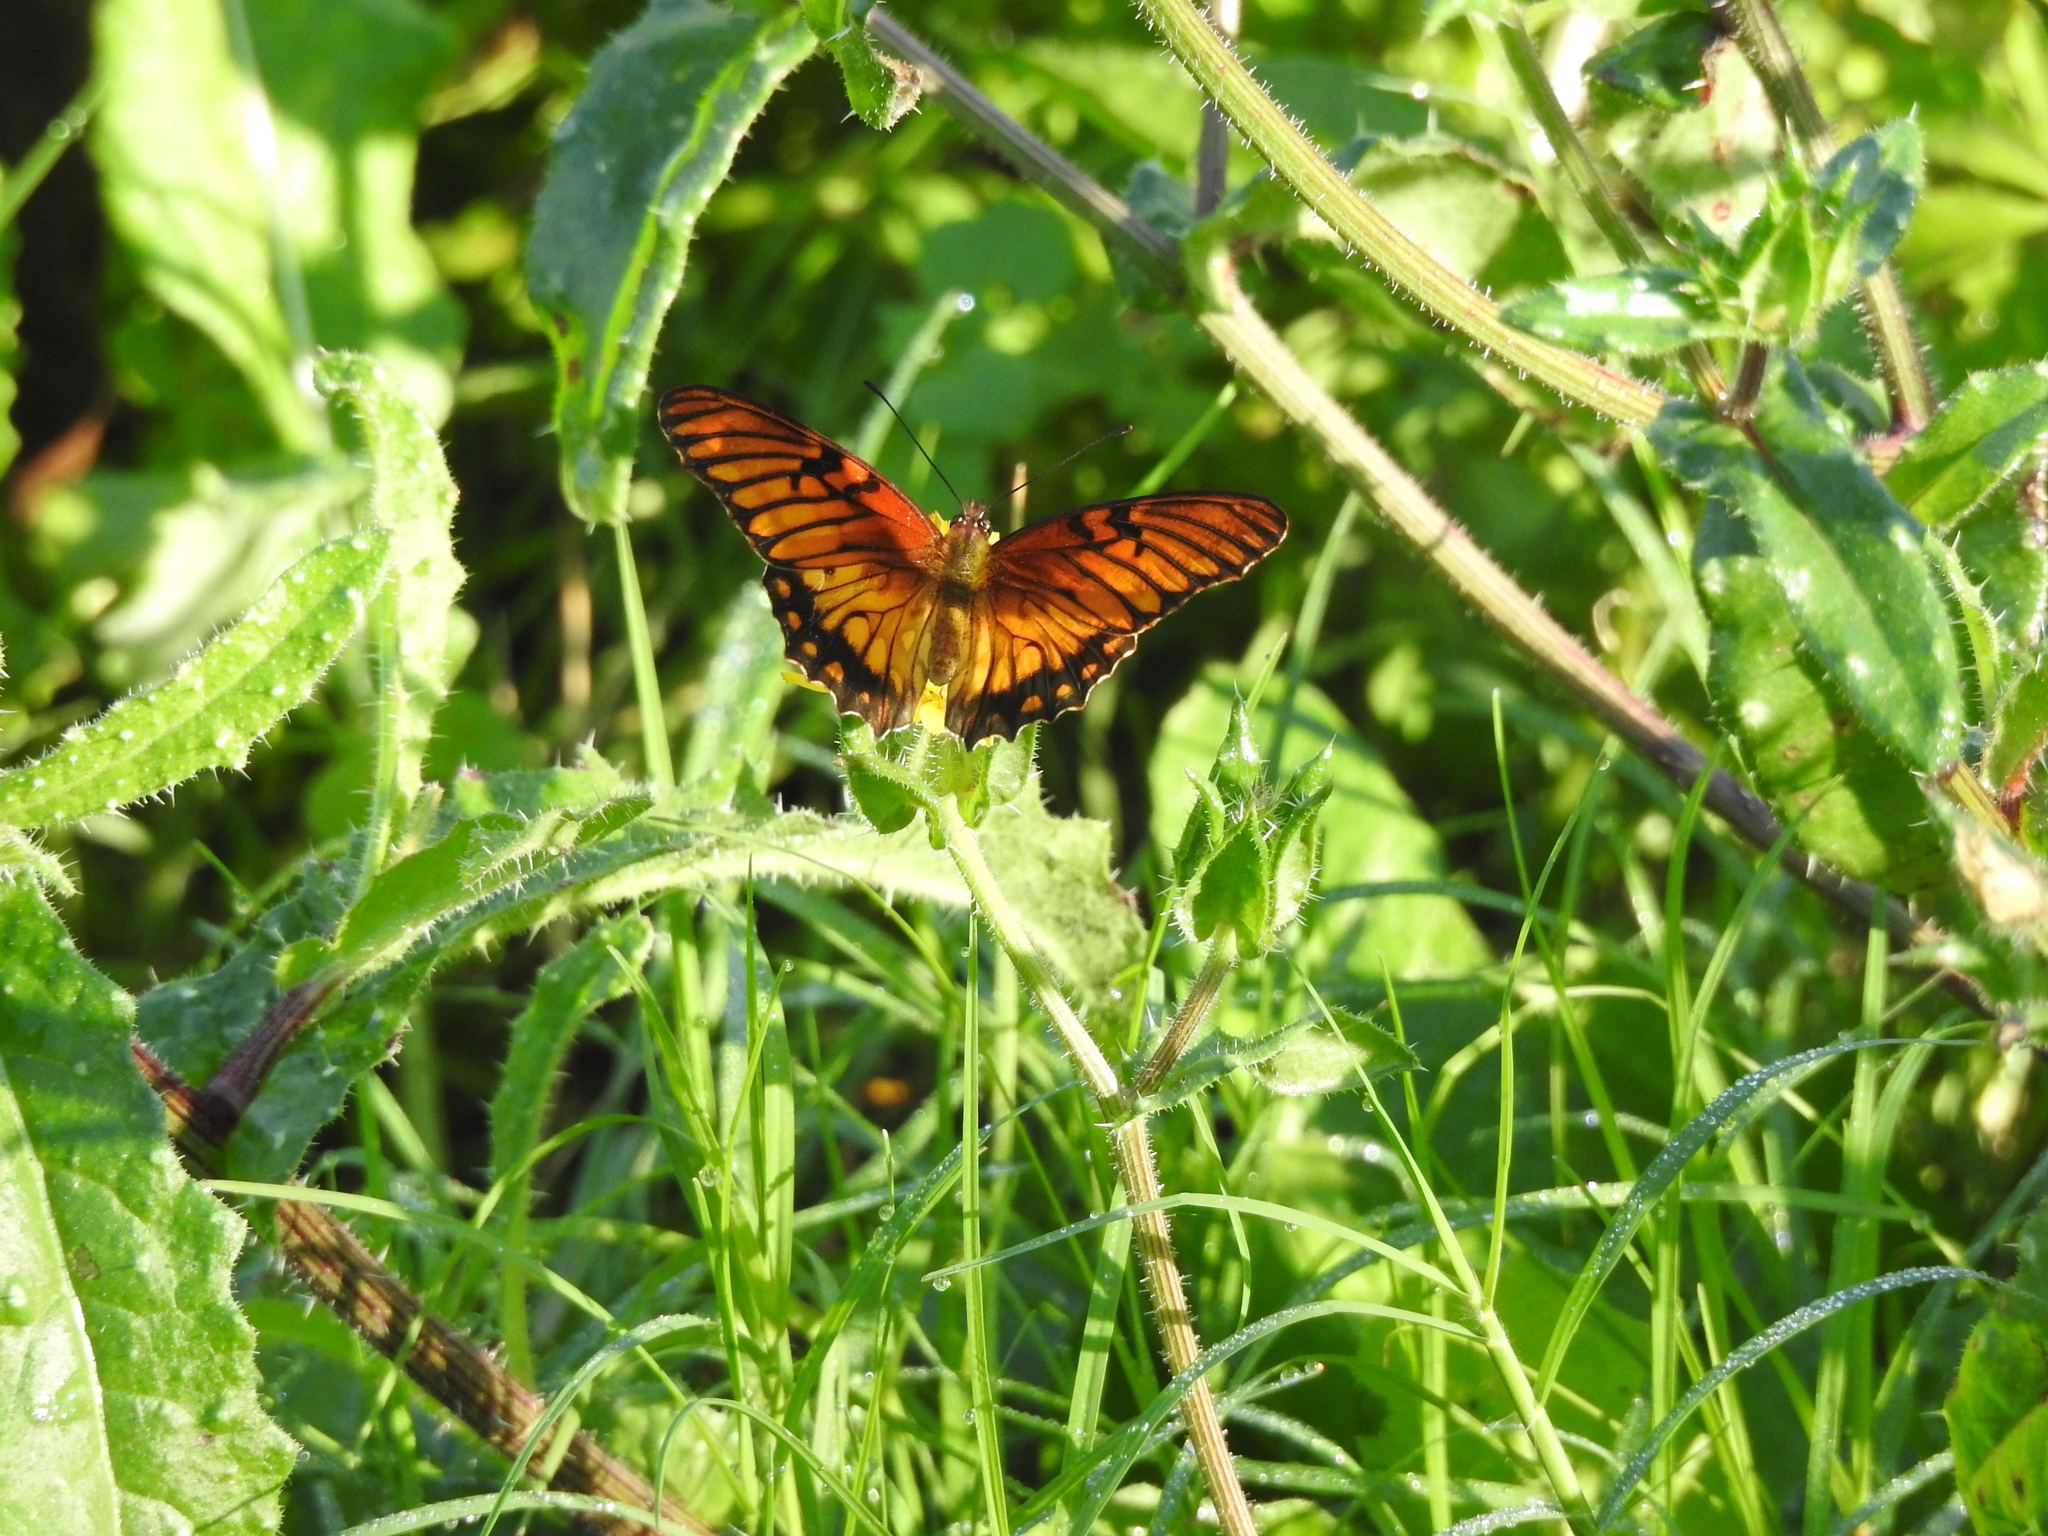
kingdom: Animalia
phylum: Arthropoda
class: Insecta
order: Lepidoptera
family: Nymphalidae
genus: Dione
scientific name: Dione moneta
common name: Mexican silverspot
